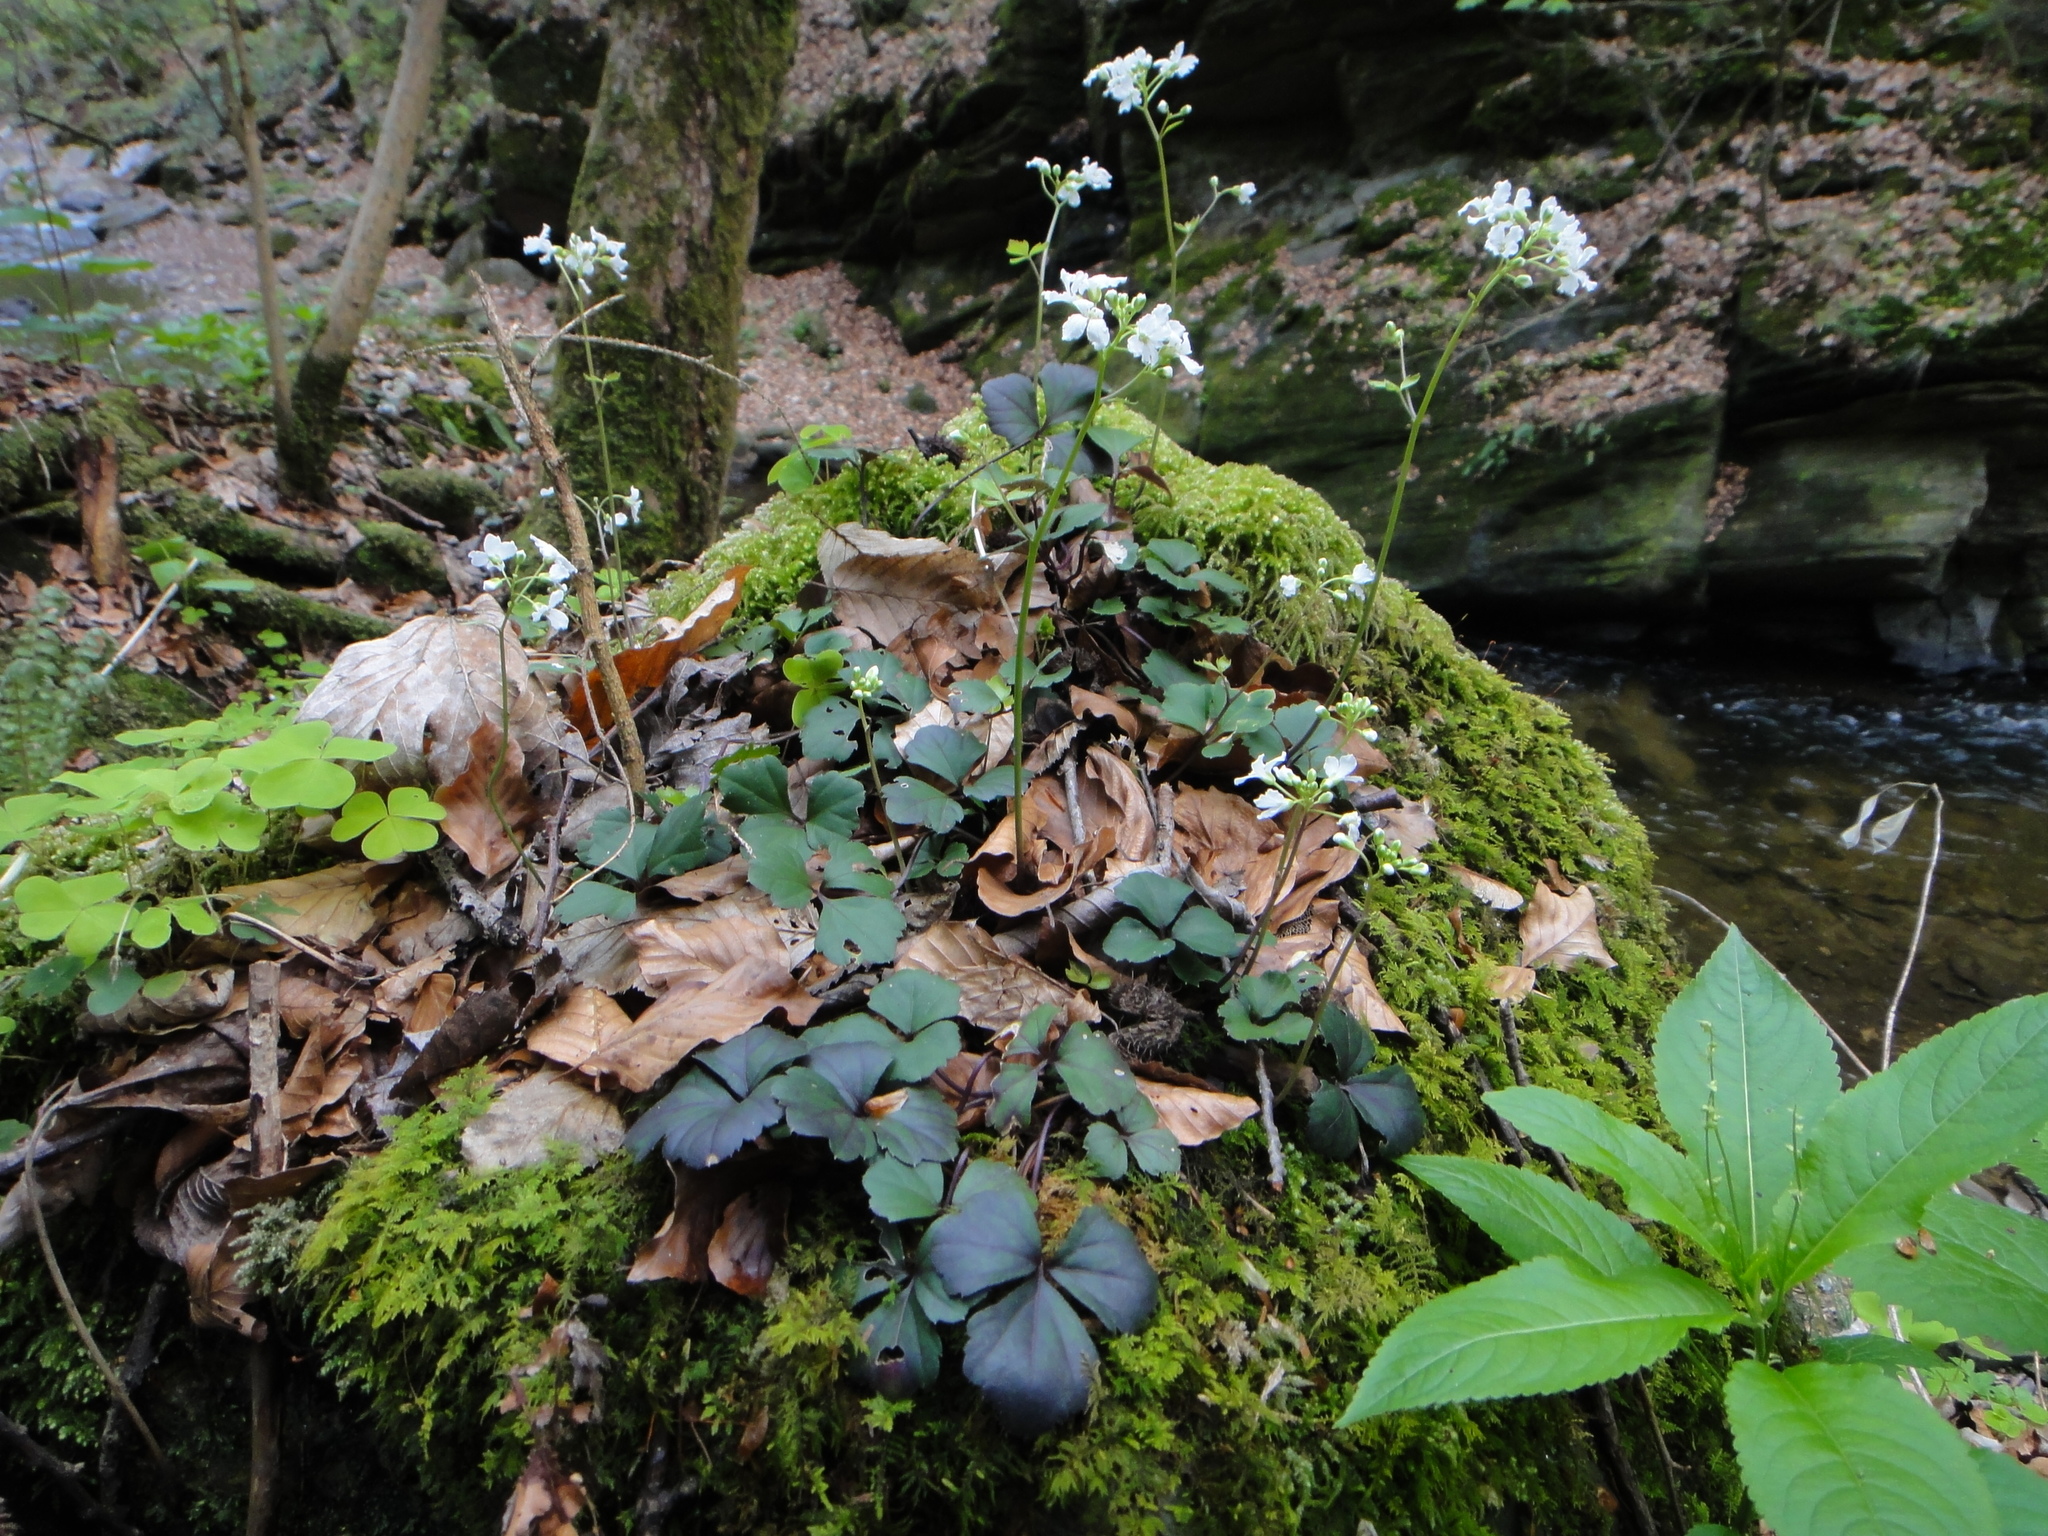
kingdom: Plantae
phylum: Tracheophyta
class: Magnoliopsida
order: Brassicales
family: Brassicaceae
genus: Cardamine
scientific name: Cardamine trifolia
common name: Trefoil cress
